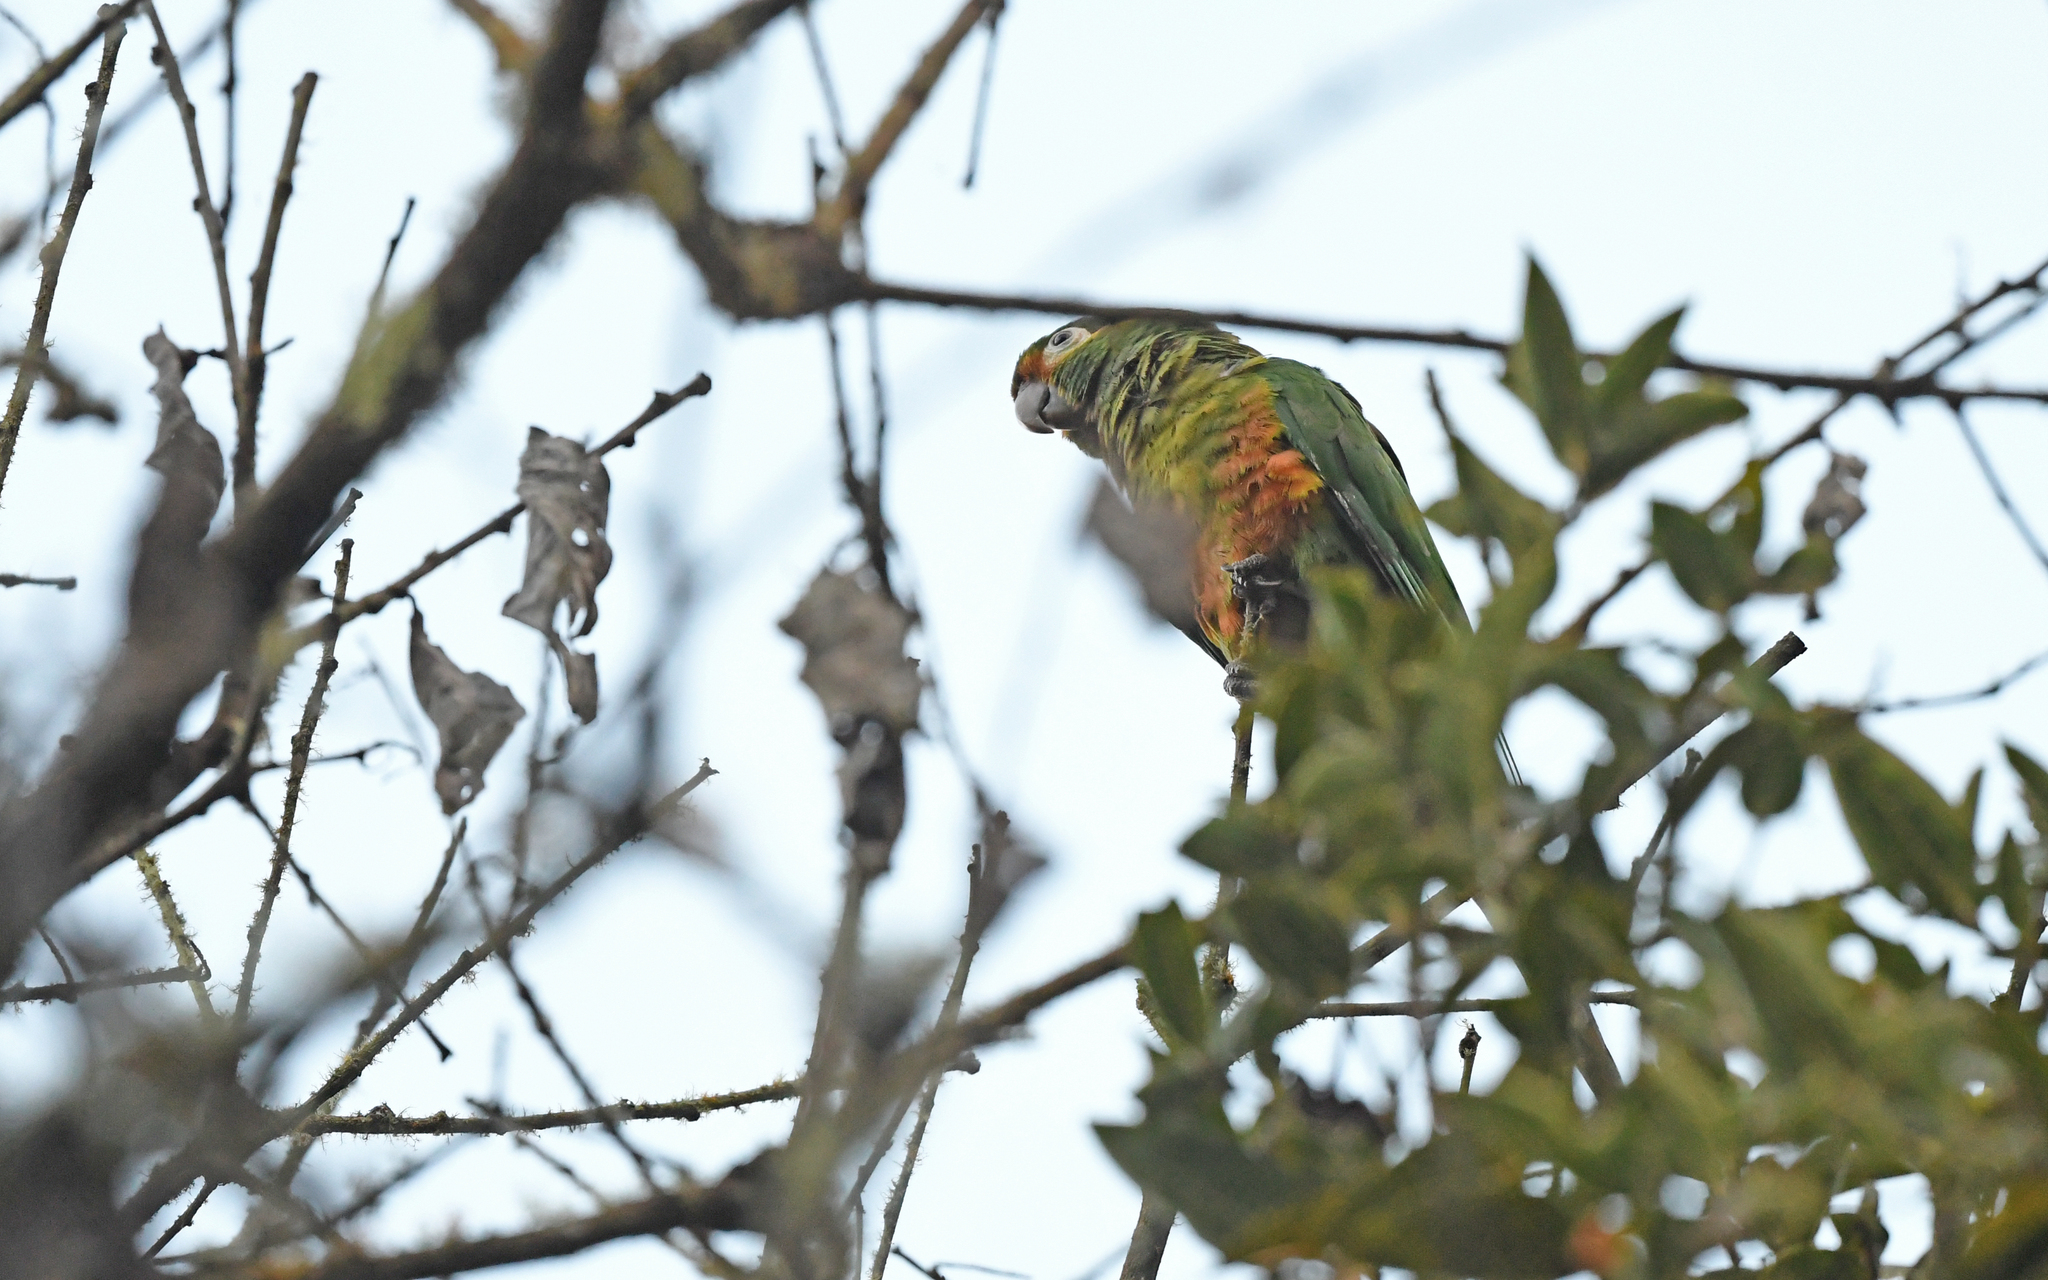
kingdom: Animalia
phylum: Chordata
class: Aves
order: Psittaciformes
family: Psittacidae
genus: Leptosittaca
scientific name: Leptosittaca branickii
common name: Golden-plumed parakeet
